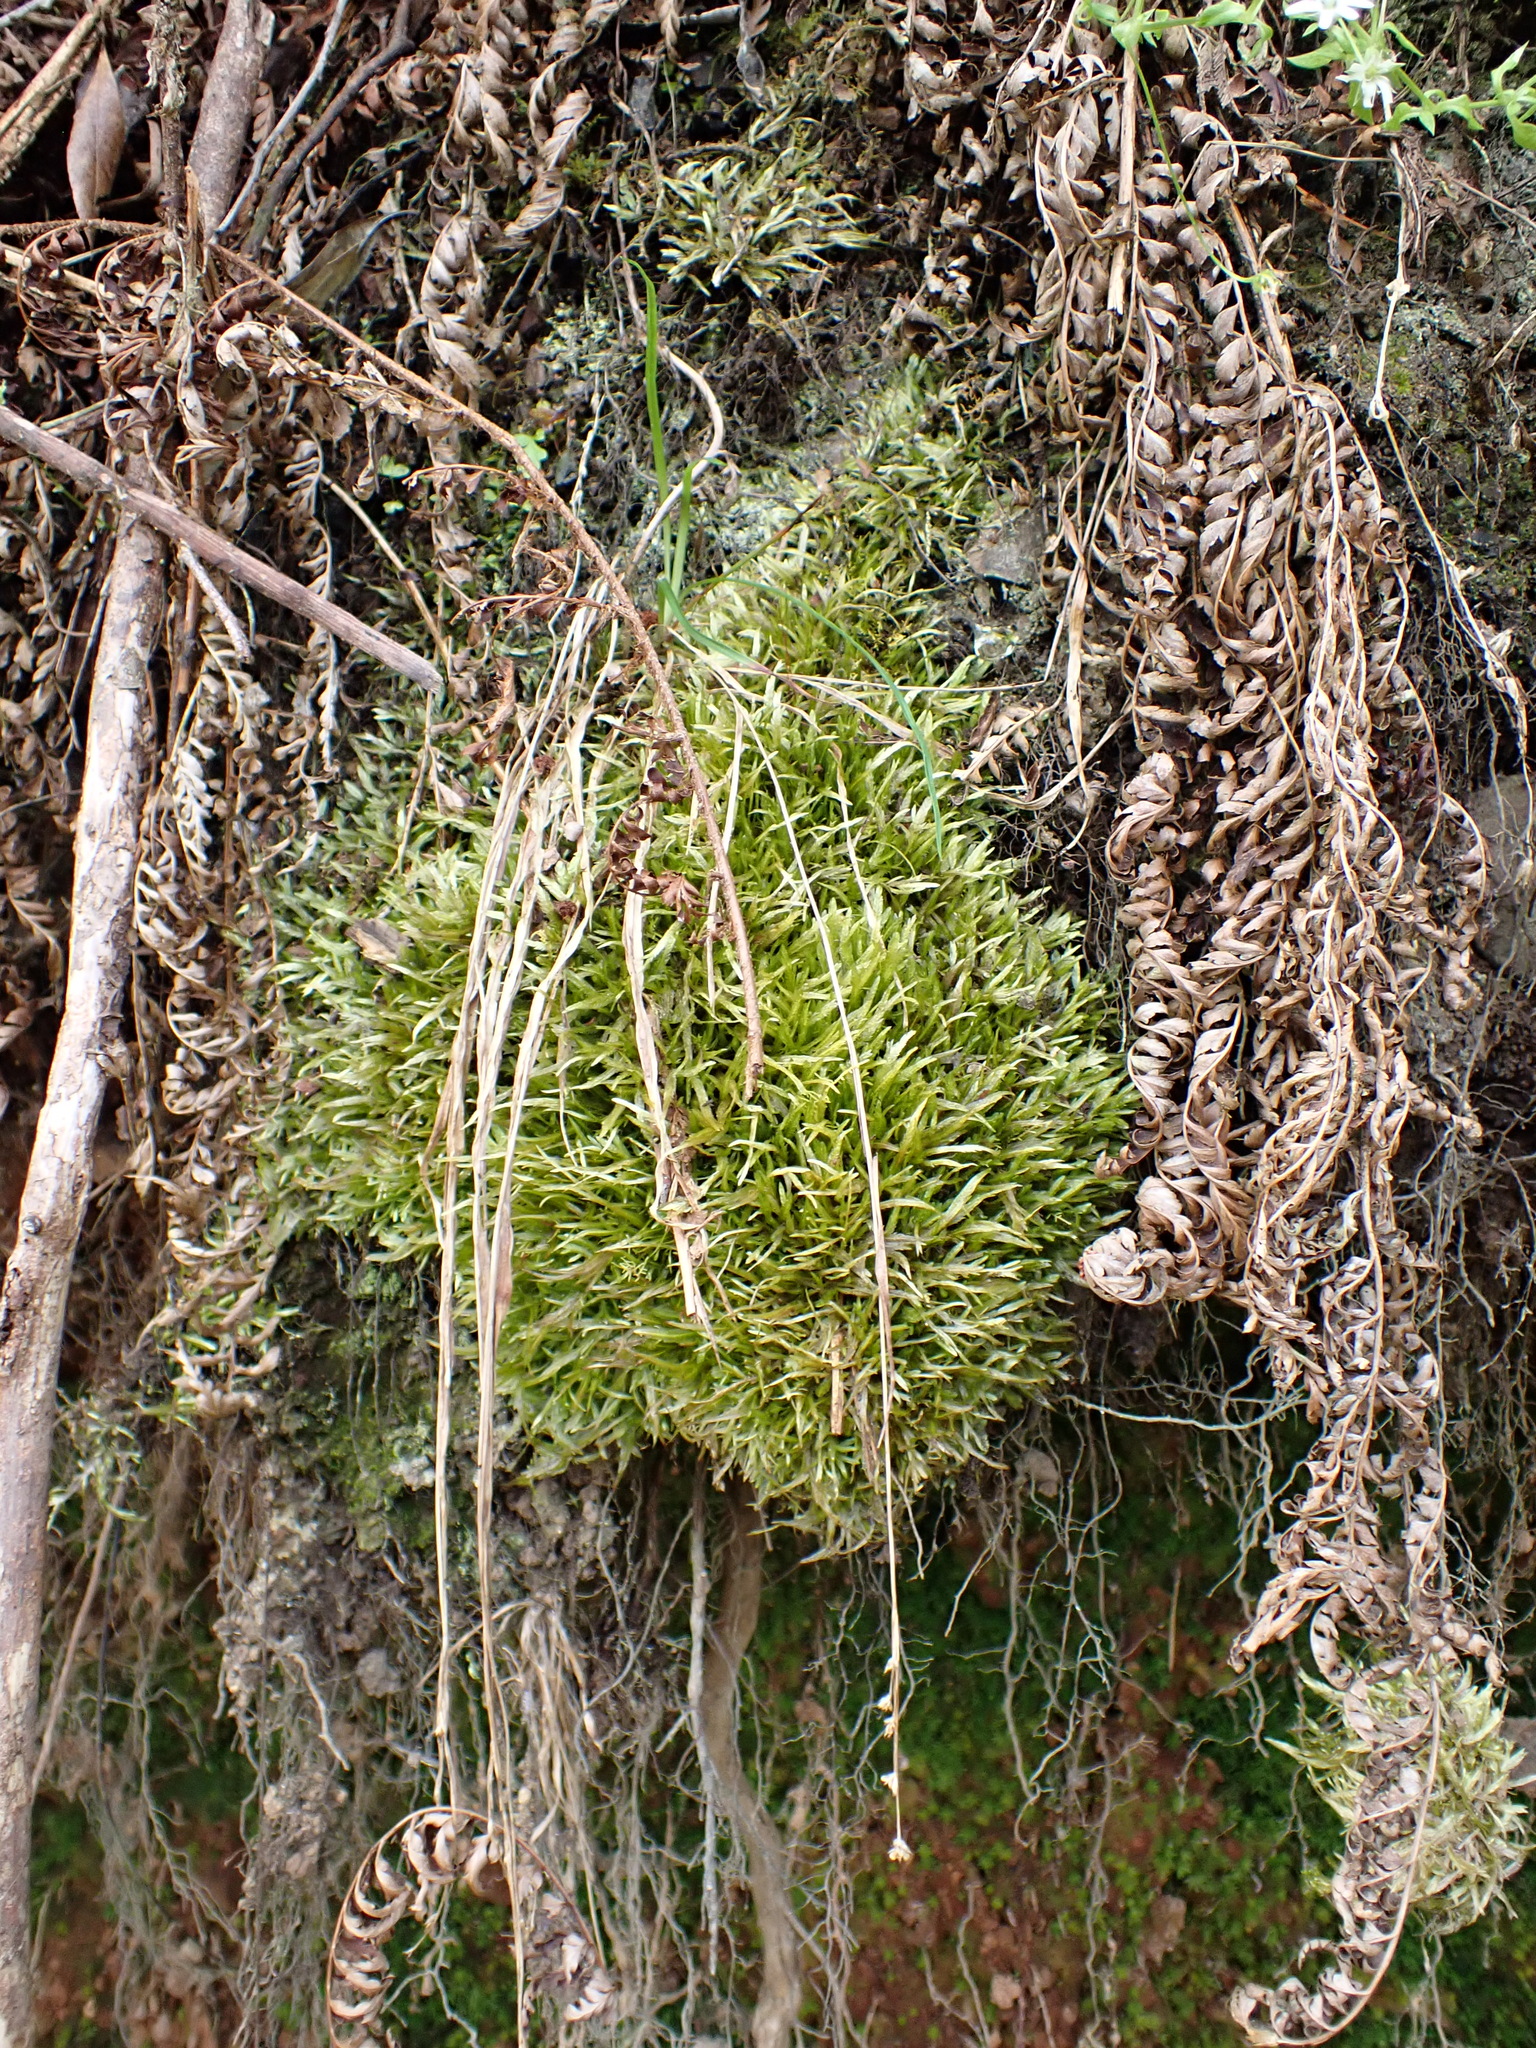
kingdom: Plantae
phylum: Bryophyta
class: Bryopsida
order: Hypnales
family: Catagoniaceae
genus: Catagonium
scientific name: Catagonium nitens
